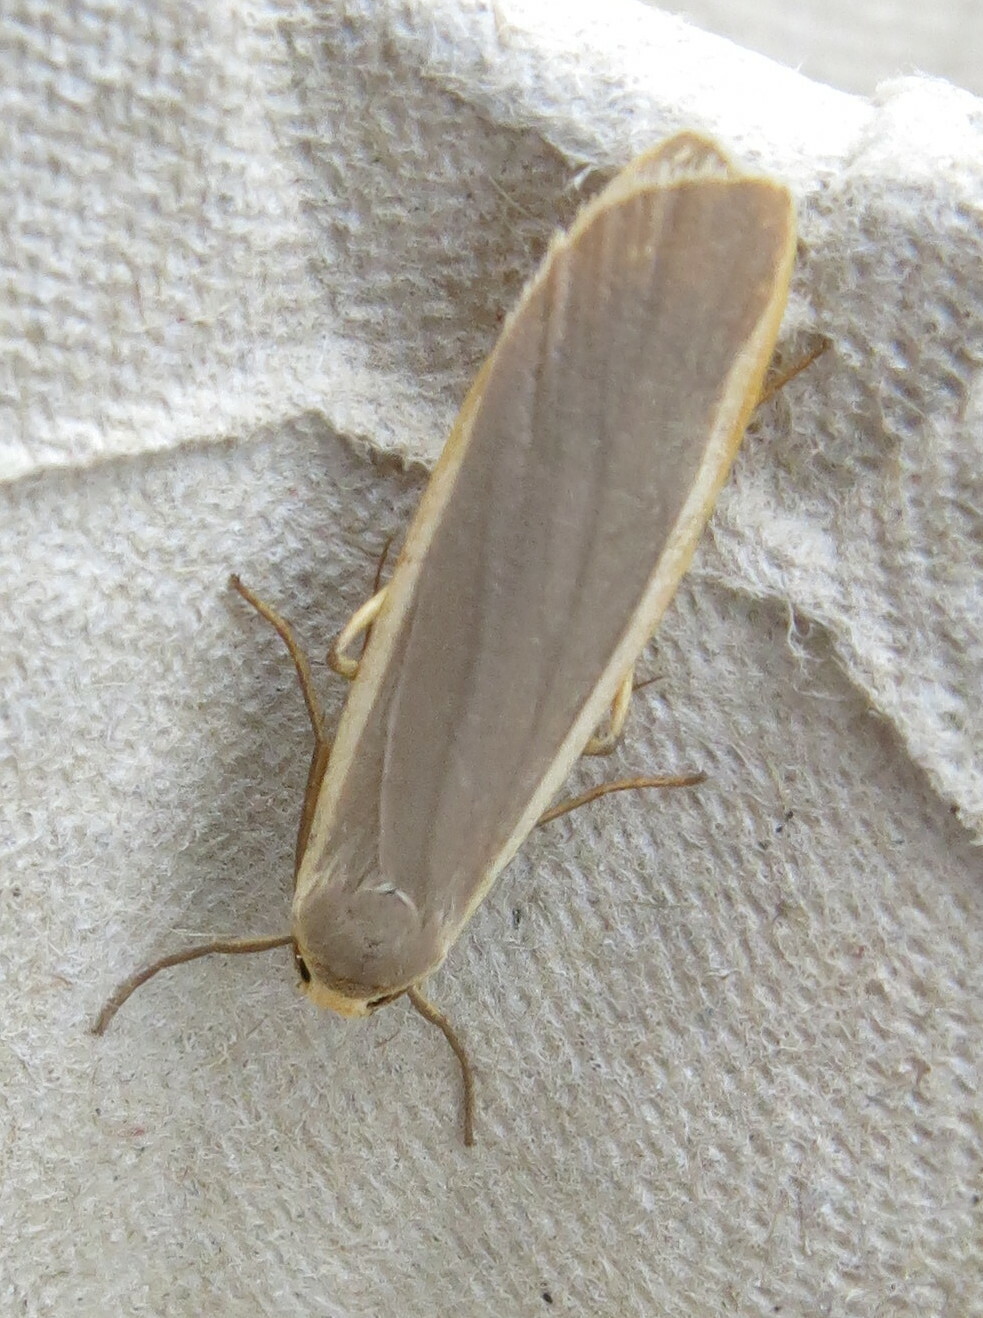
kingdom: Animalia
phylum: Arthropoda
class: Insecta
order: Lepidoptera
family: Erebidae
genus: Nyea
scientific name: Nyea lurideola
